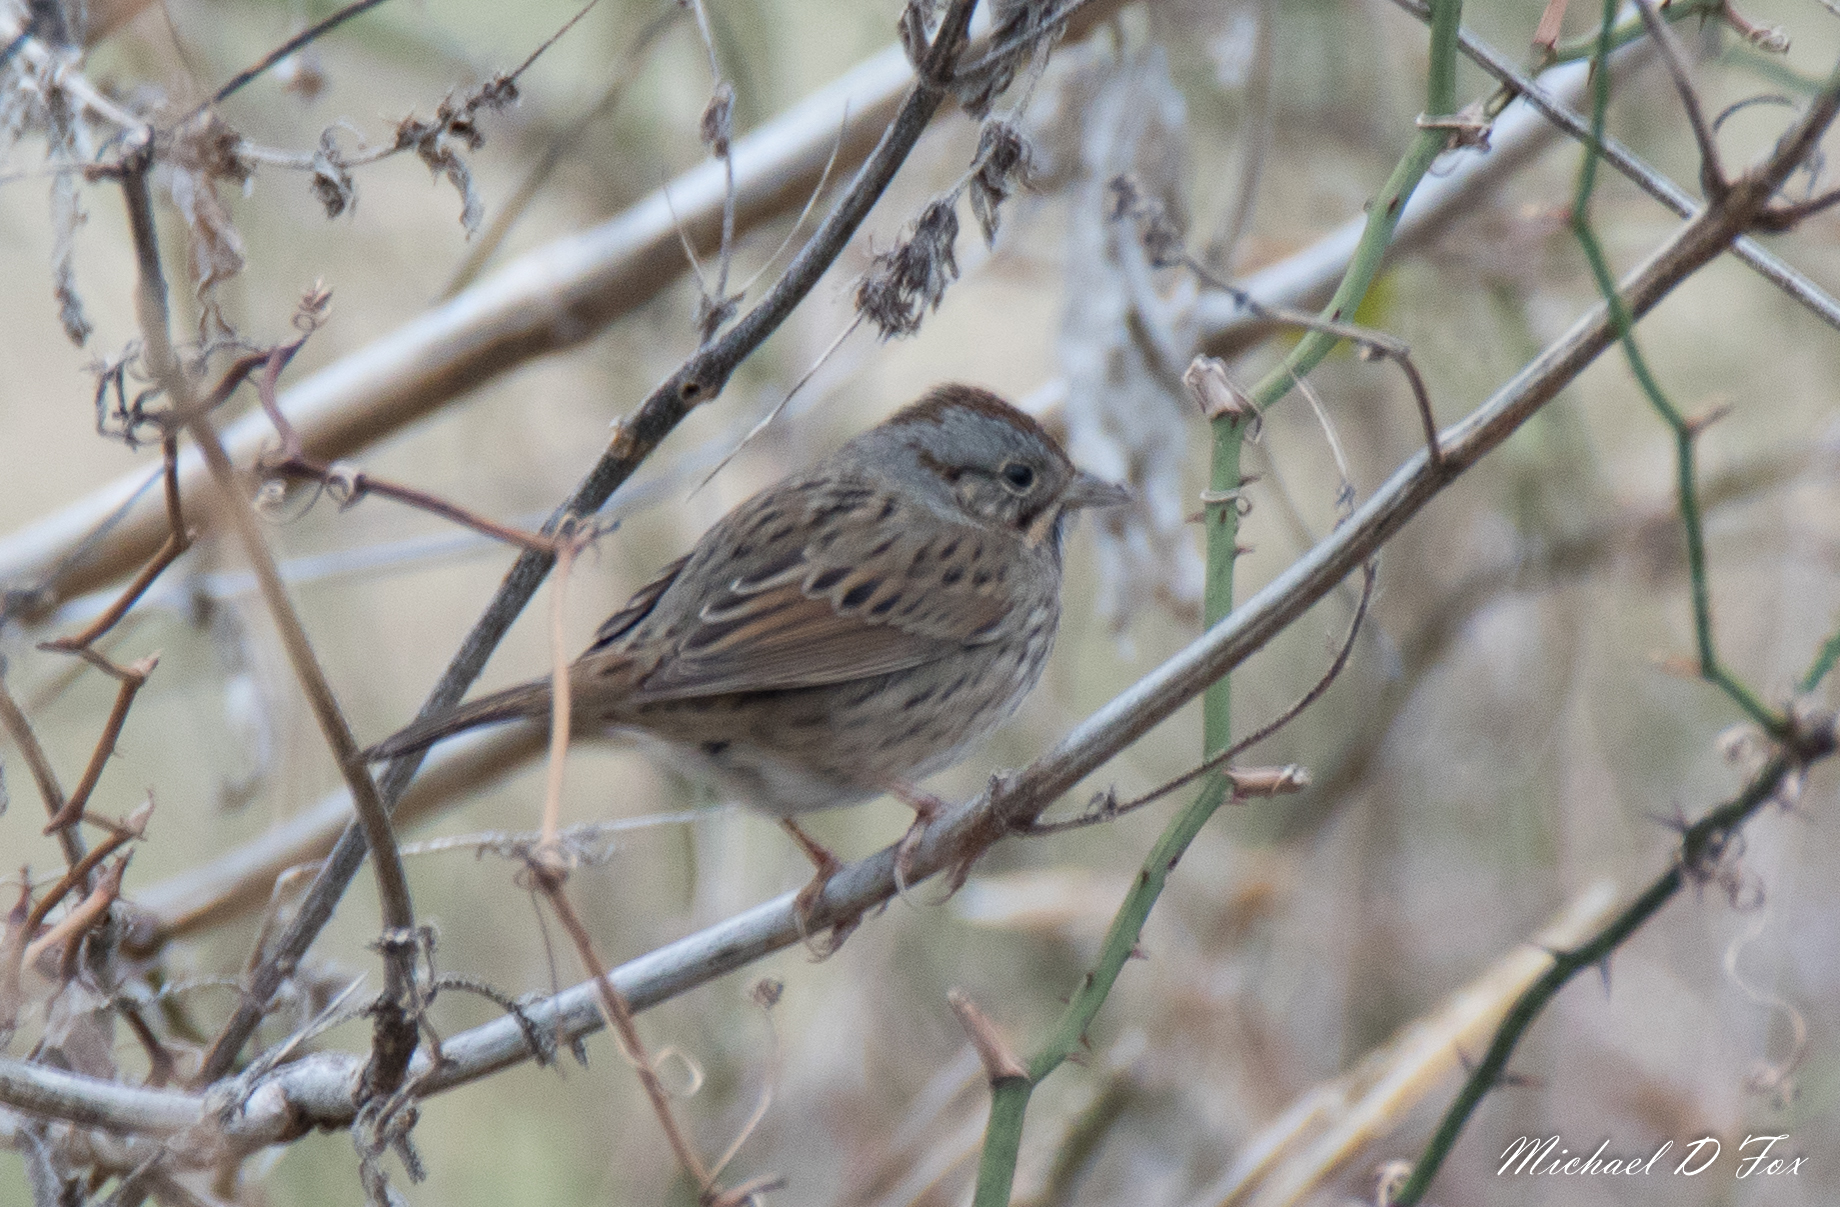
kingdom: Animalia
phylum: Chordata
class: Aves
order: Passeriformes
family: Passerellidae
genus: Melospiza
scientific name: Melospiza lincolnii
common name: Lincoln's sparrow
